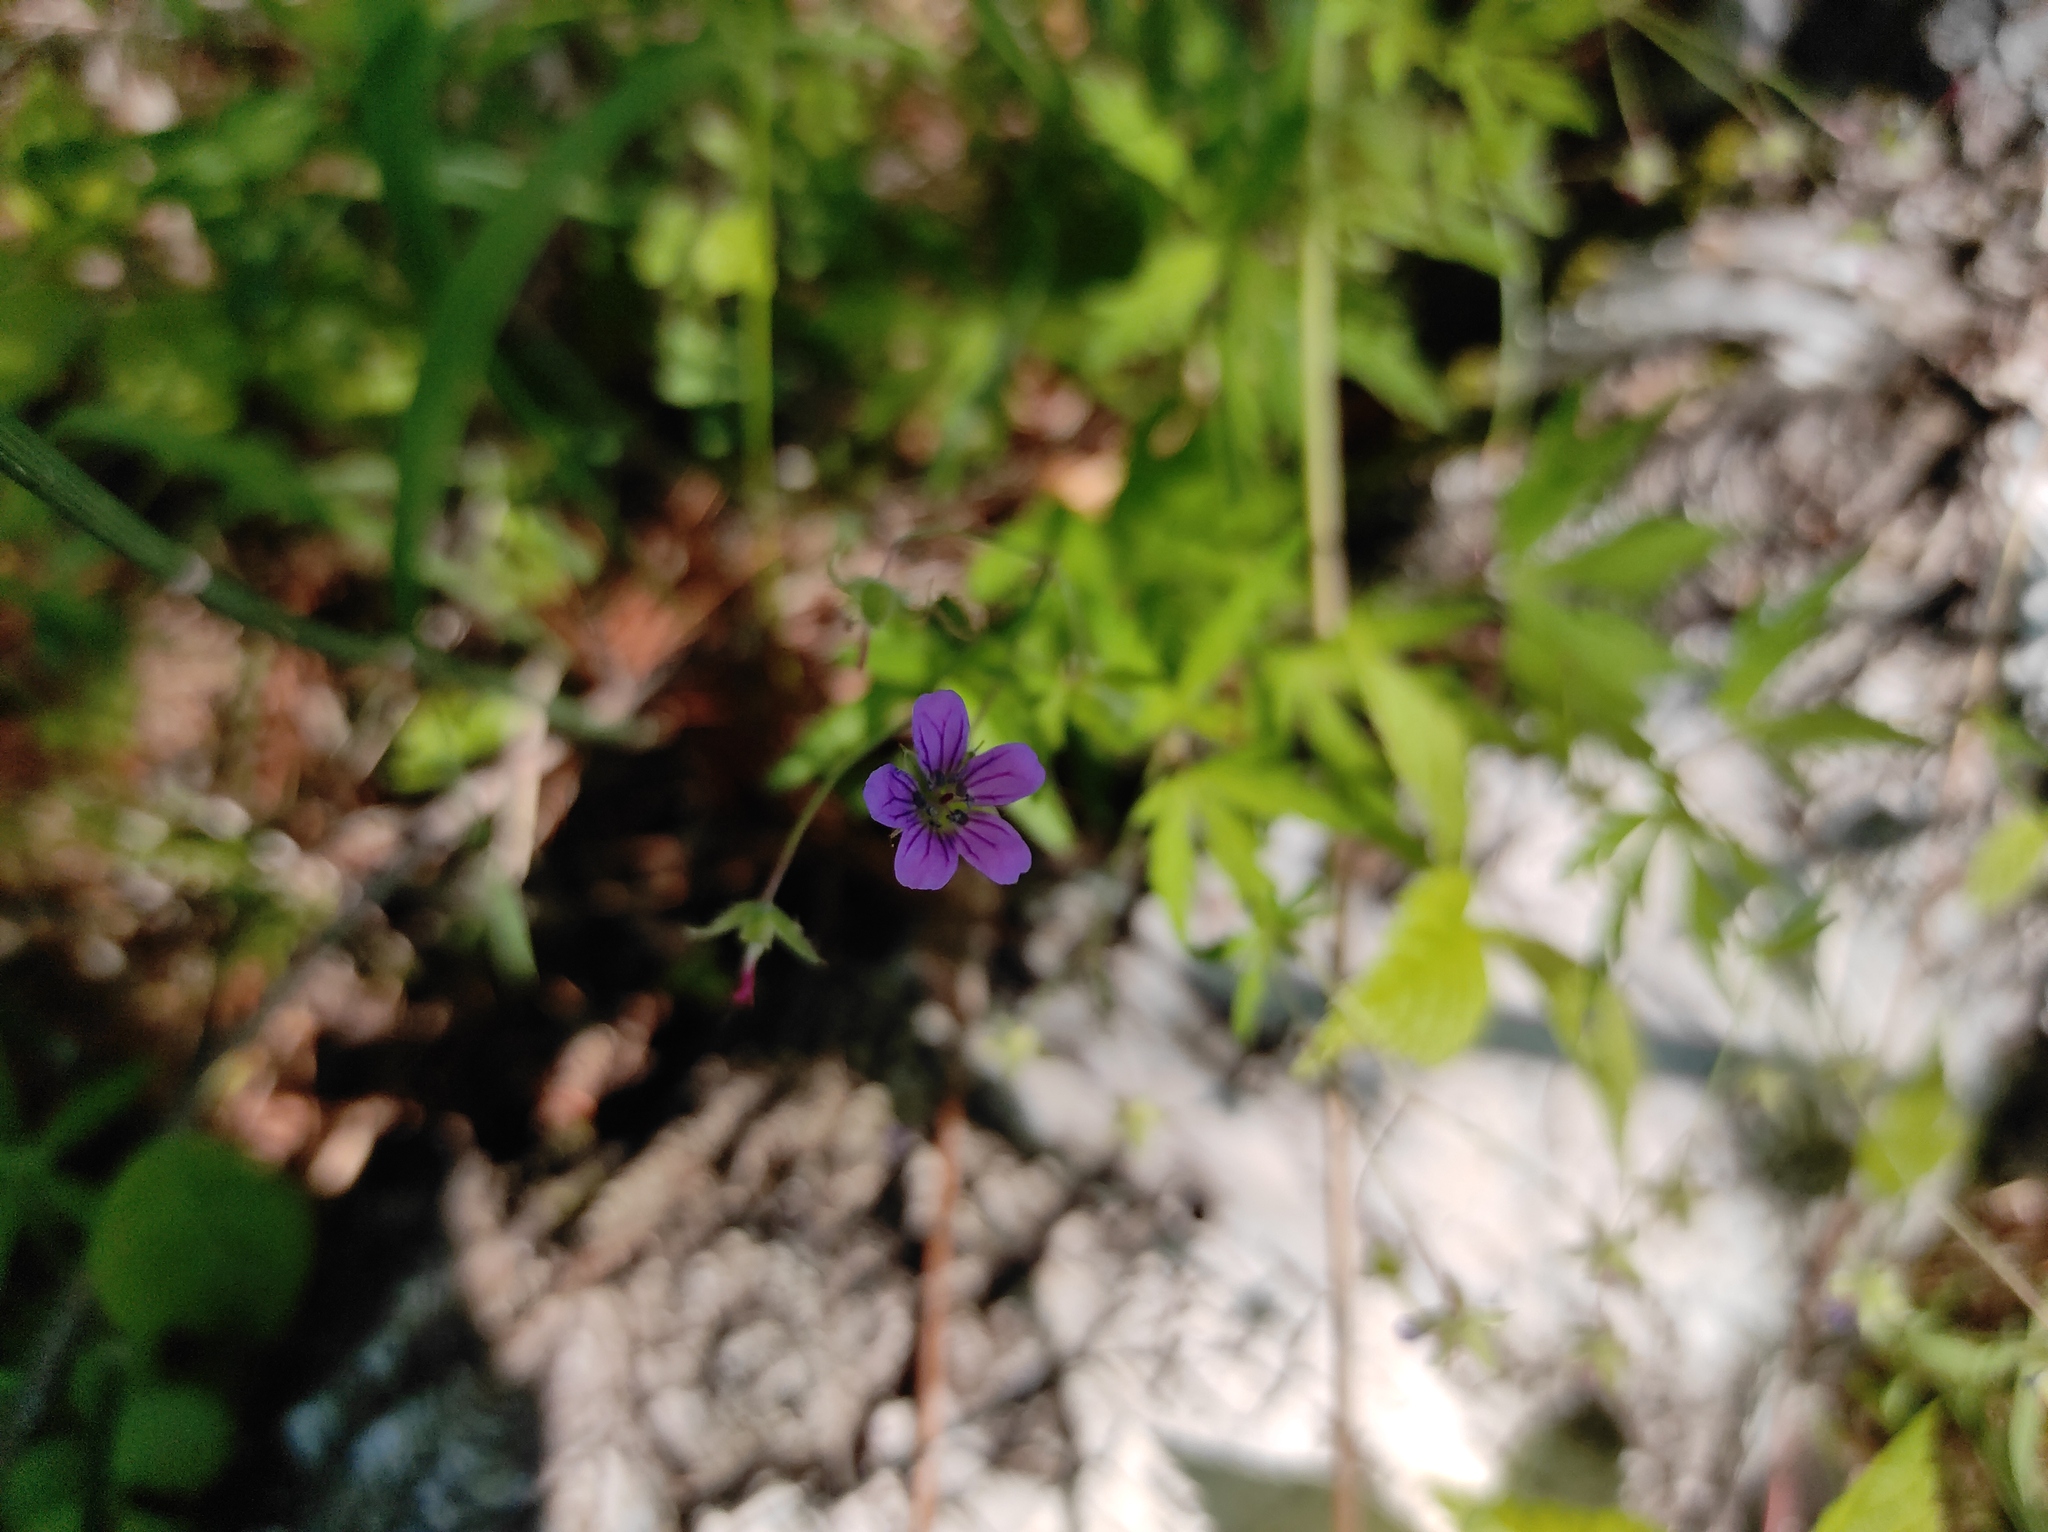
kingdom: Plantae
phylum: Tracheophyta
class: Magnoliopsida
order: Geraniales
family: Geraniaceae
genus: Geranium
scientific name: Geranium pseudosibiricum
